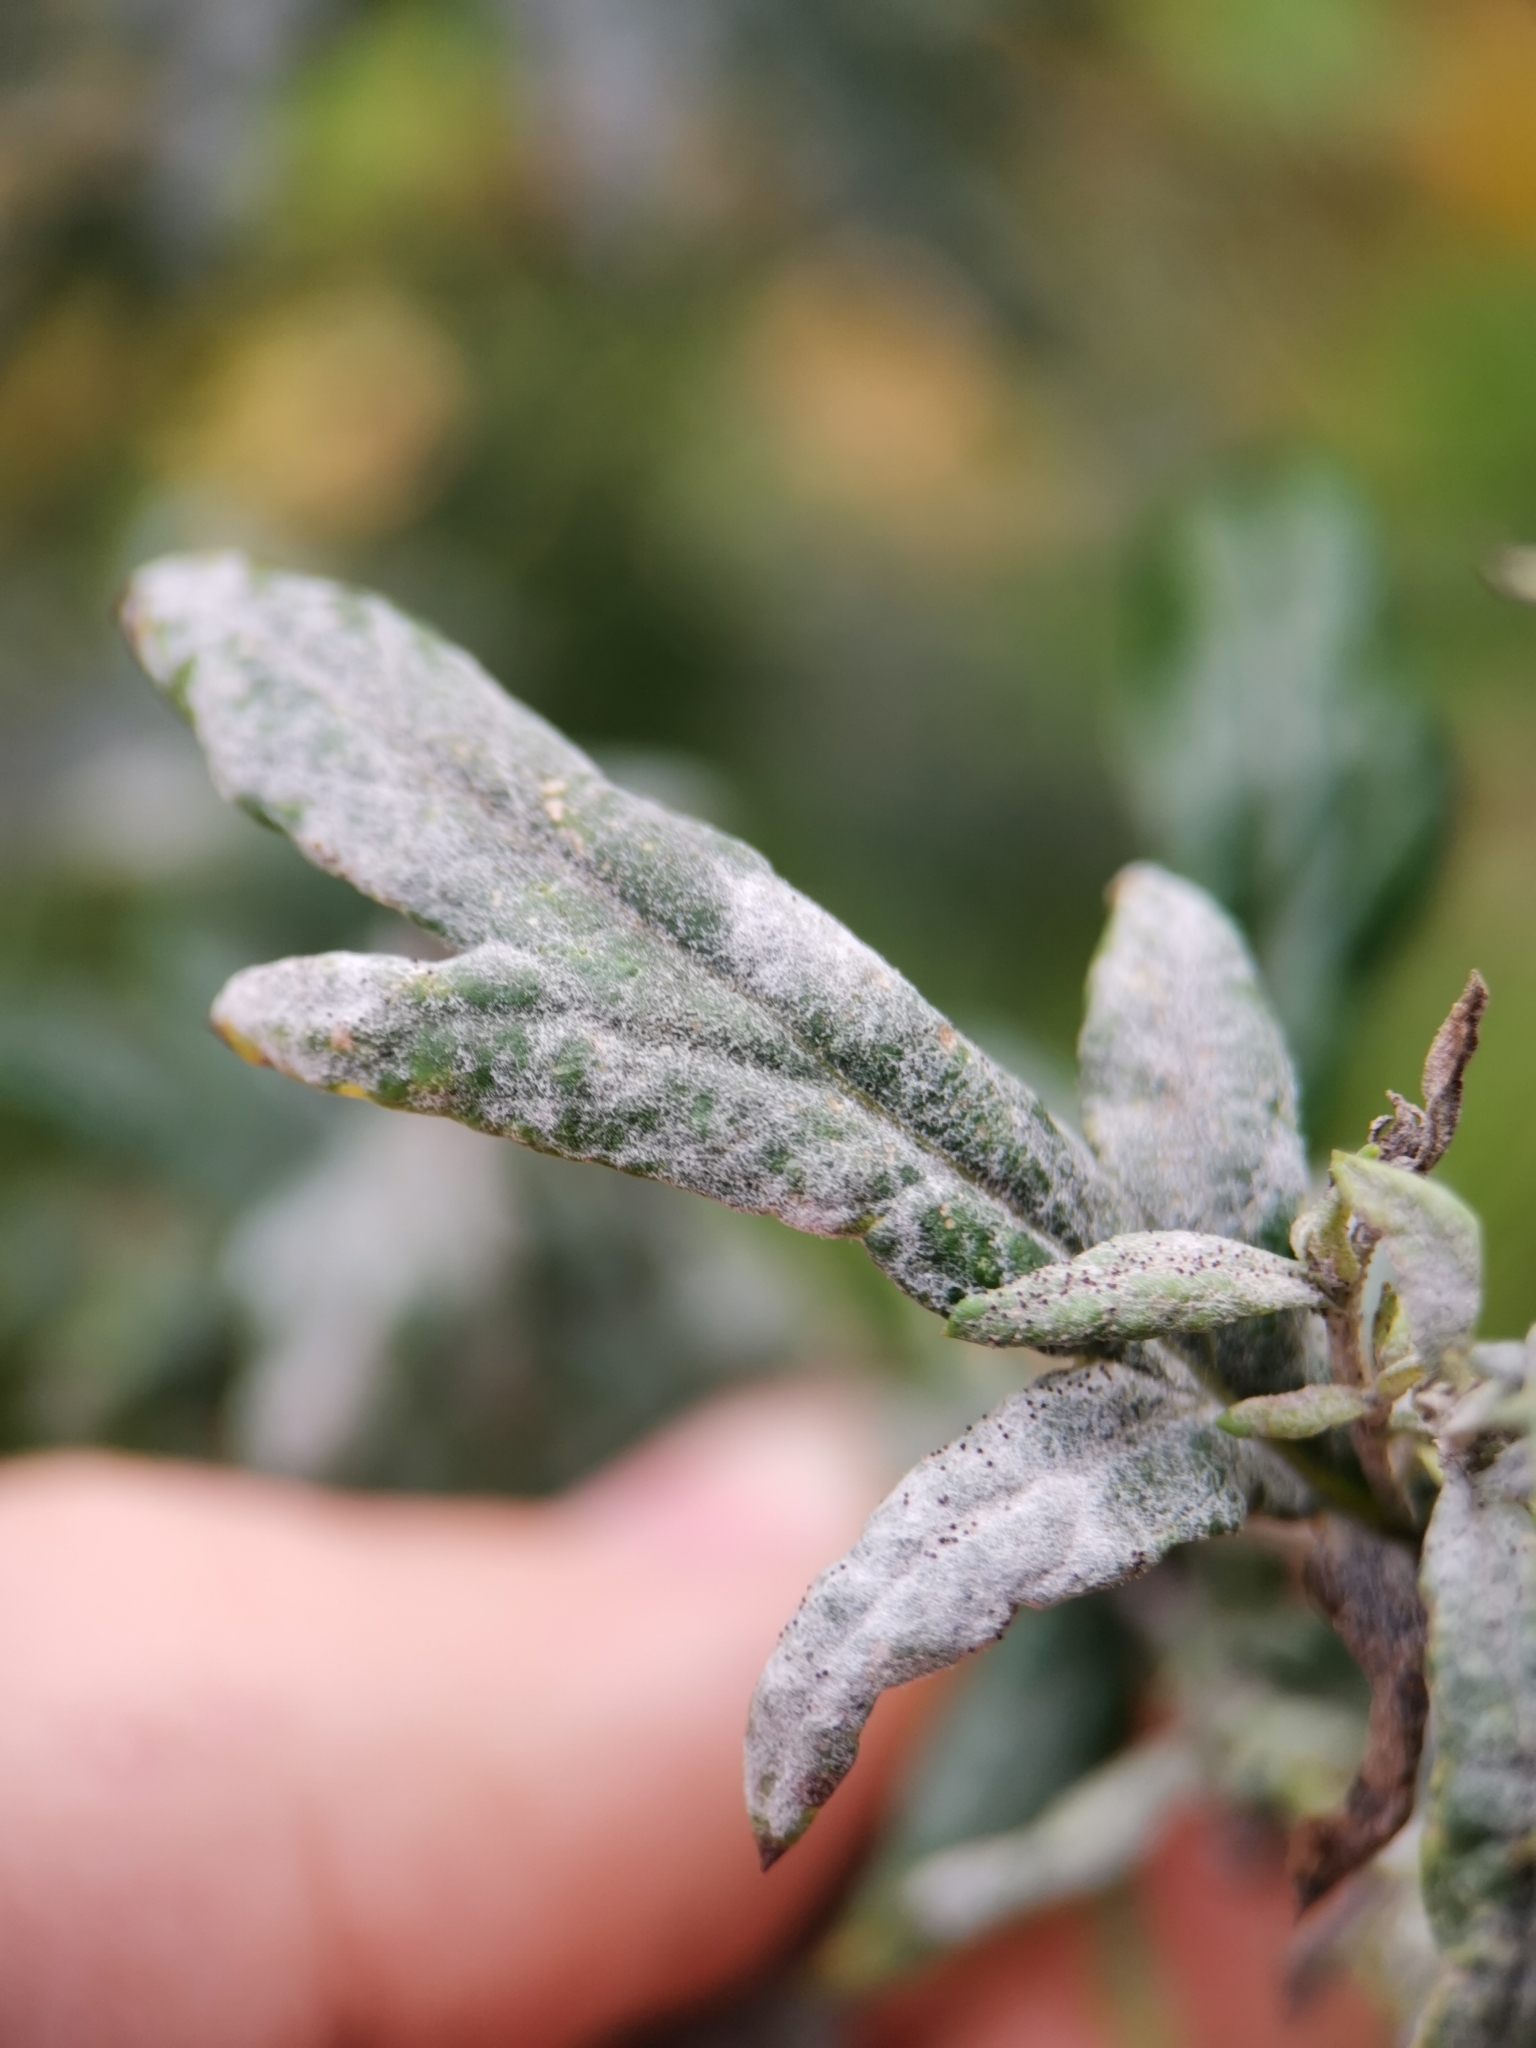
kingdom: Fungi
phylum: Ascomycota
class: Leotiomycetes
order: Helotiales
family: Erysiphaceae
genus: Golovinomyces
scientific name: Golovinomyces artemisiae
